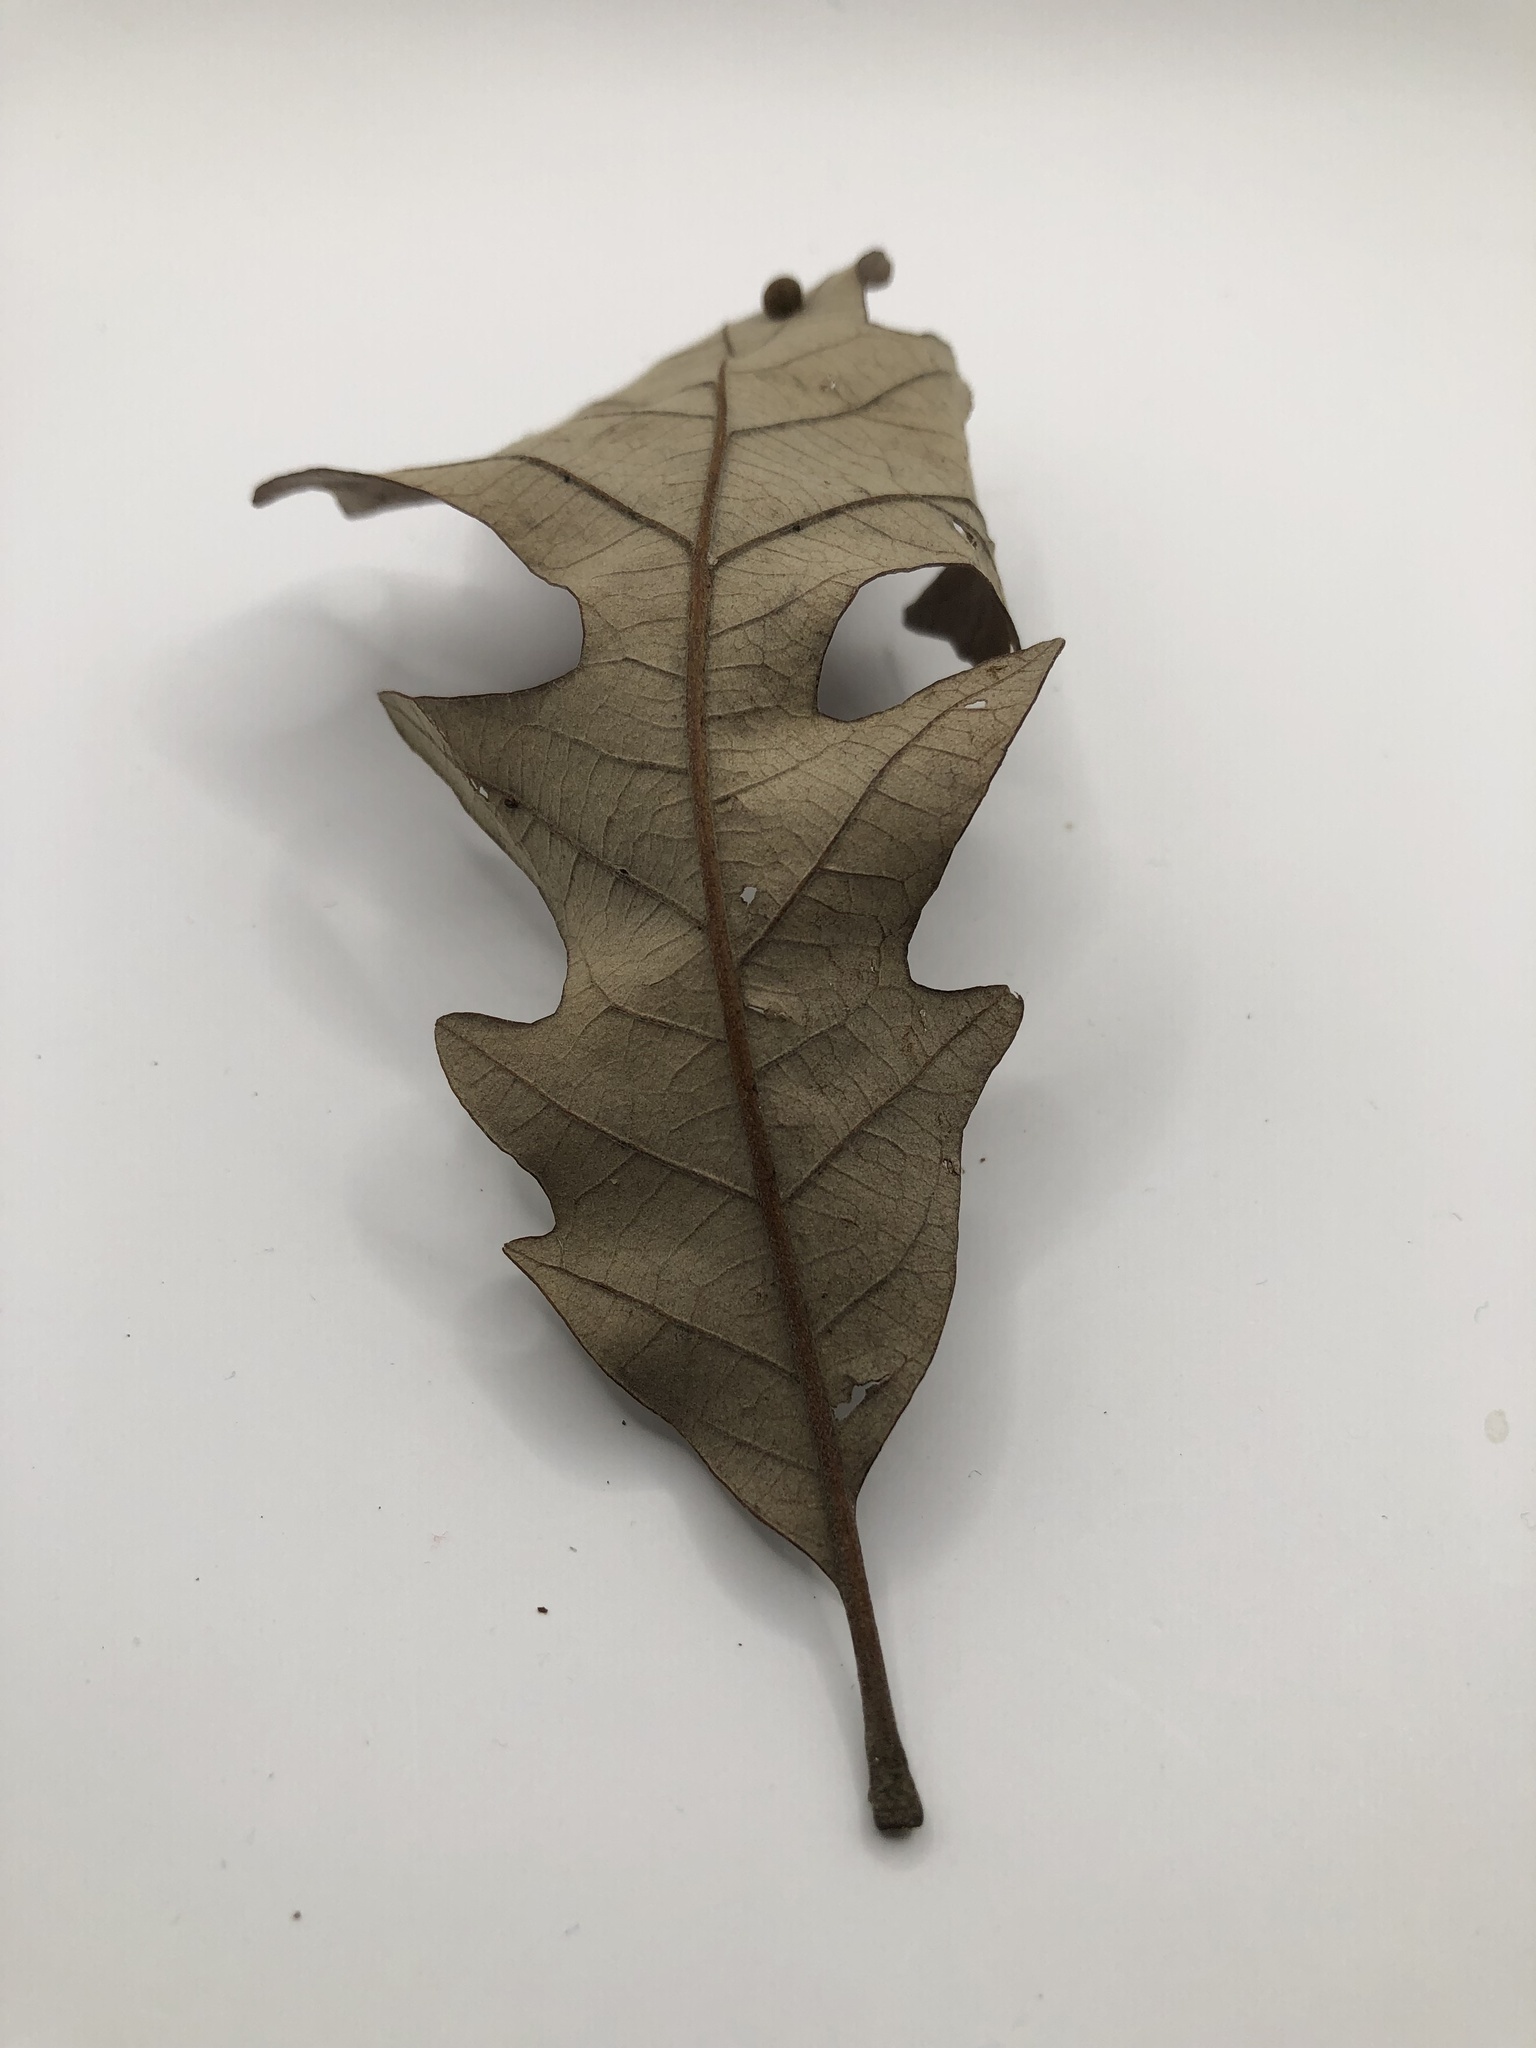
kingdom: Plantae
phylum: Tracheophyta
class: Magnoliopsida
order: Fagales
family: Fagaceae
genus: Quercus
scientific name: Quercus macrocarpa
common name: Bur oak
